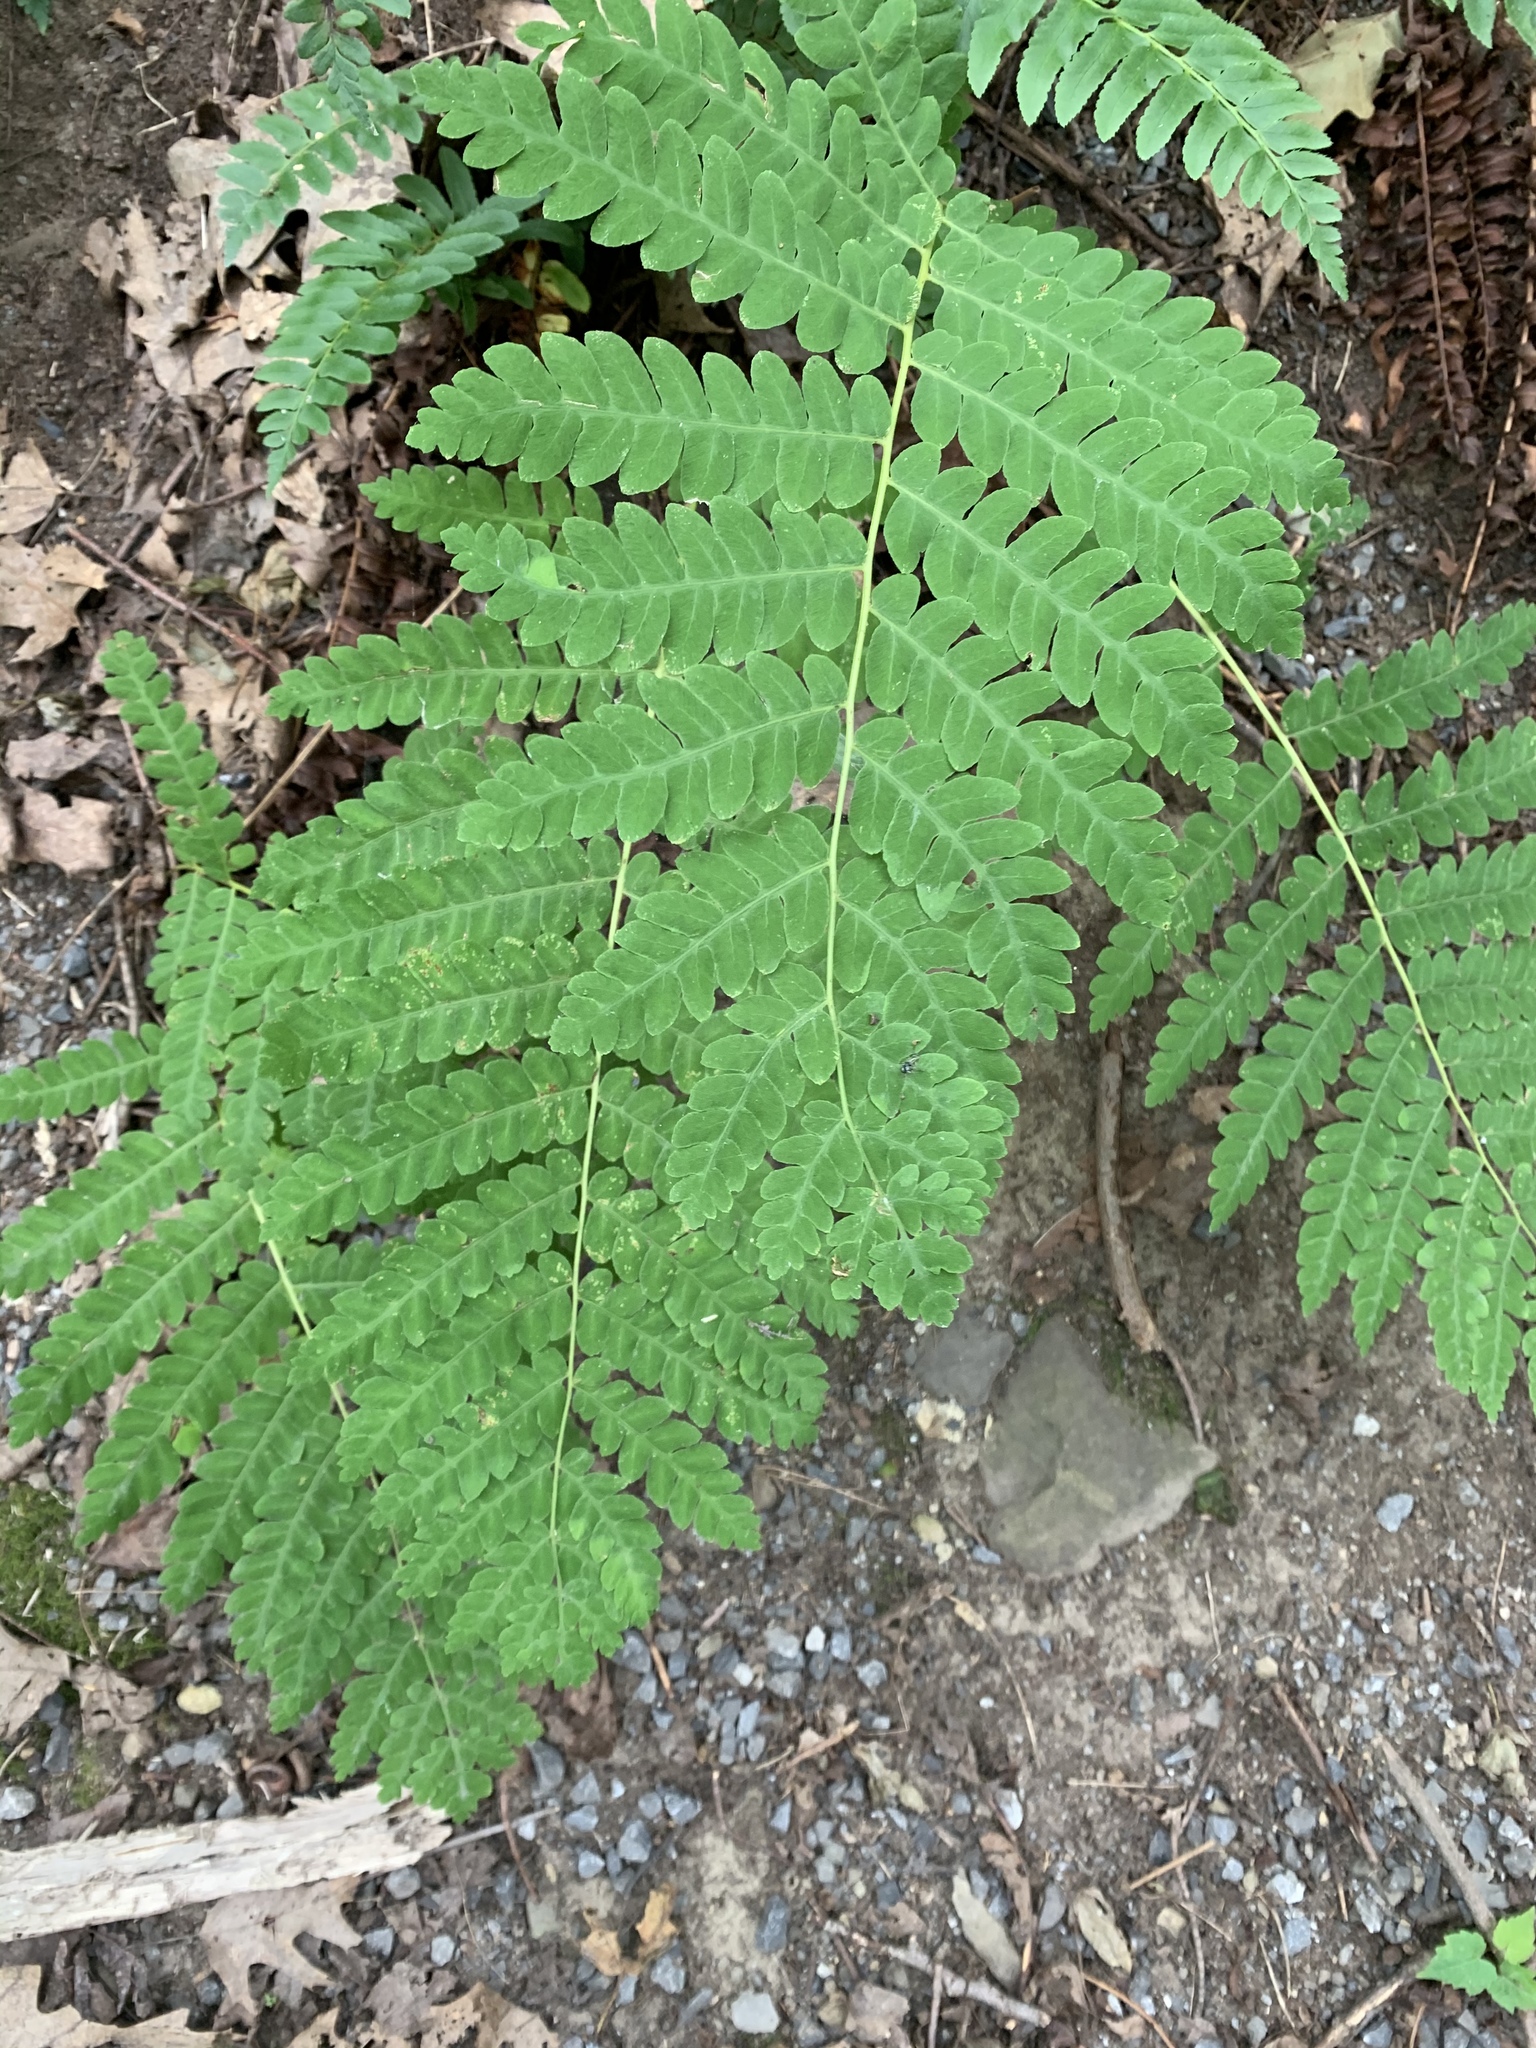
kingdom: Plantae
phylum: Tracheophyta
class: Polypodiopsida
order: Osmundales
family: Osmundaceae
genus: Claytosmunda
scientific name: Claytosmunda claytoniana
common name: Clayton's fern
